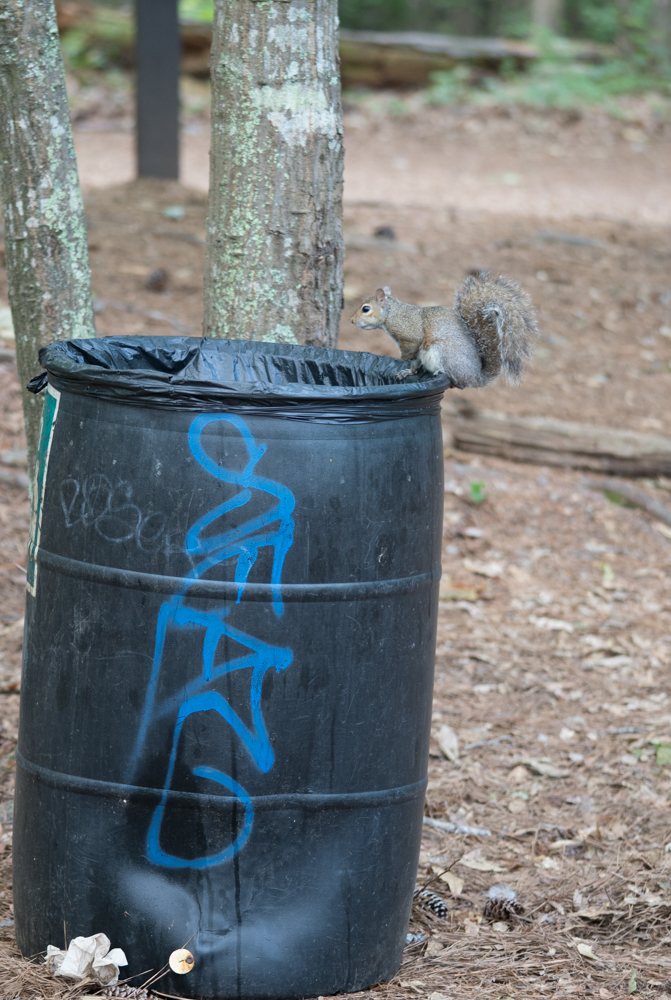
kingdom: Animalia
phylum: Chordata
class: Mammalia
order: Rodentia
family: Sciuridae
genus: Sciurus
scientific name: Sciurus carolinensis
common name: Eastern gray squirrel
